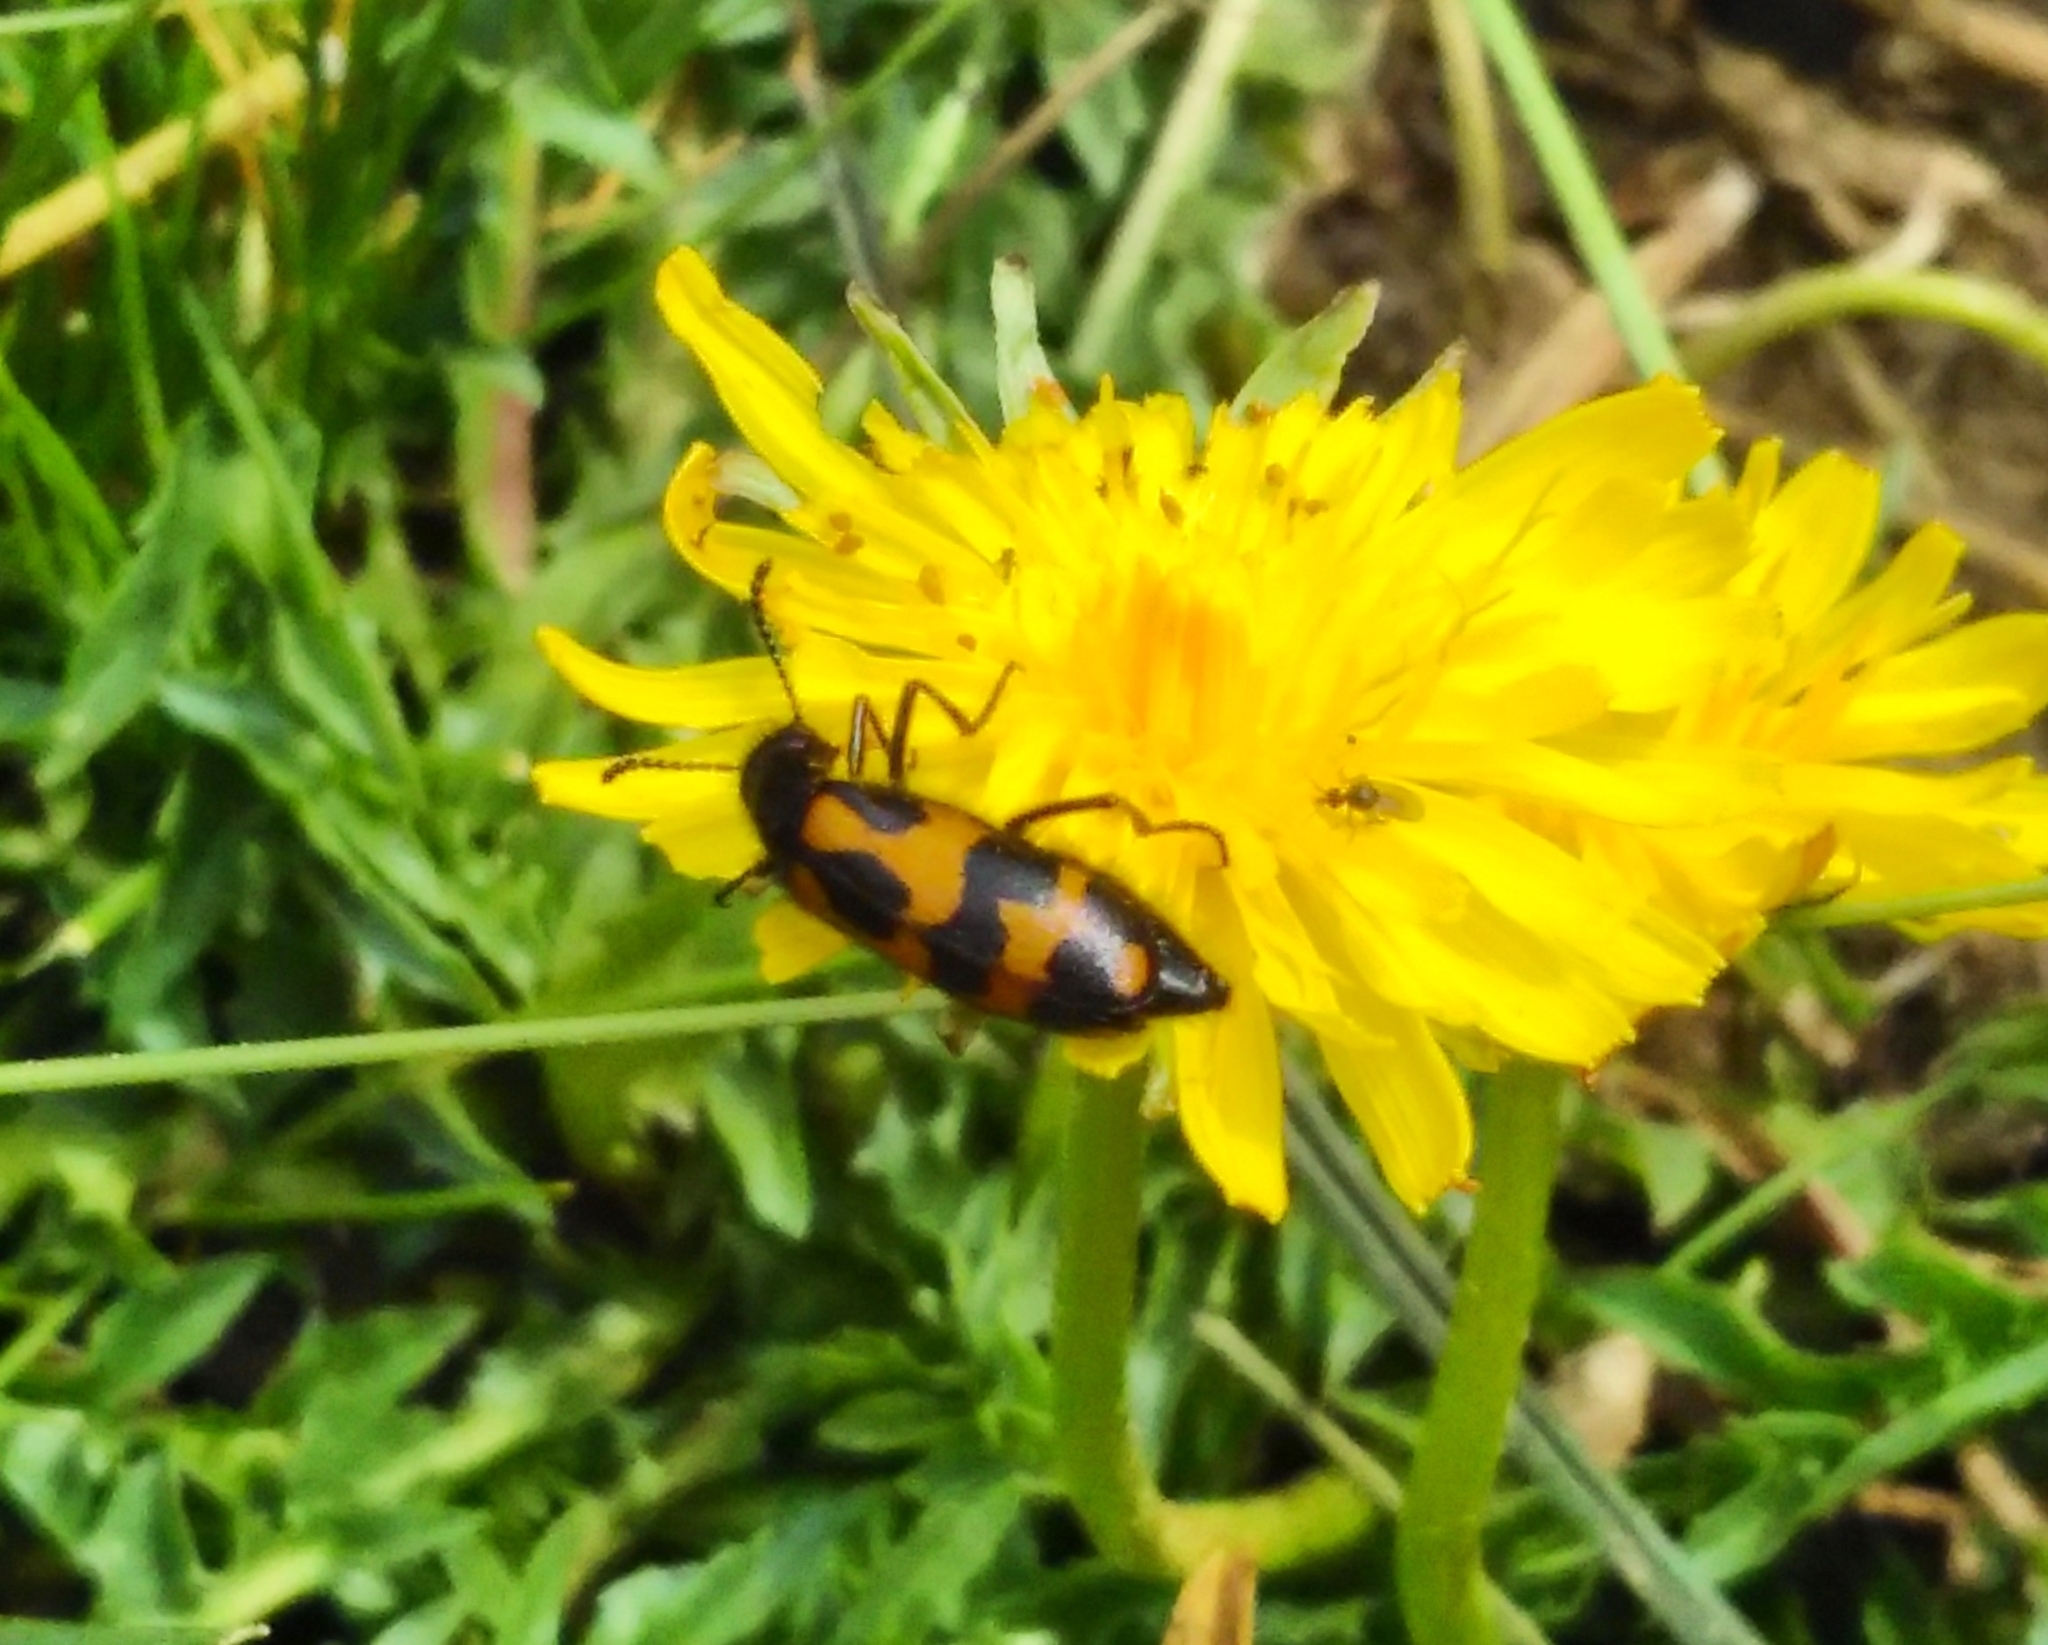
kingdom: Animalia
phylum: Arthropoda
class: Insecta
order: Coleoptera
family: Meloidae
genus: Mylabris
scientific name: Mylabris flexuosa
